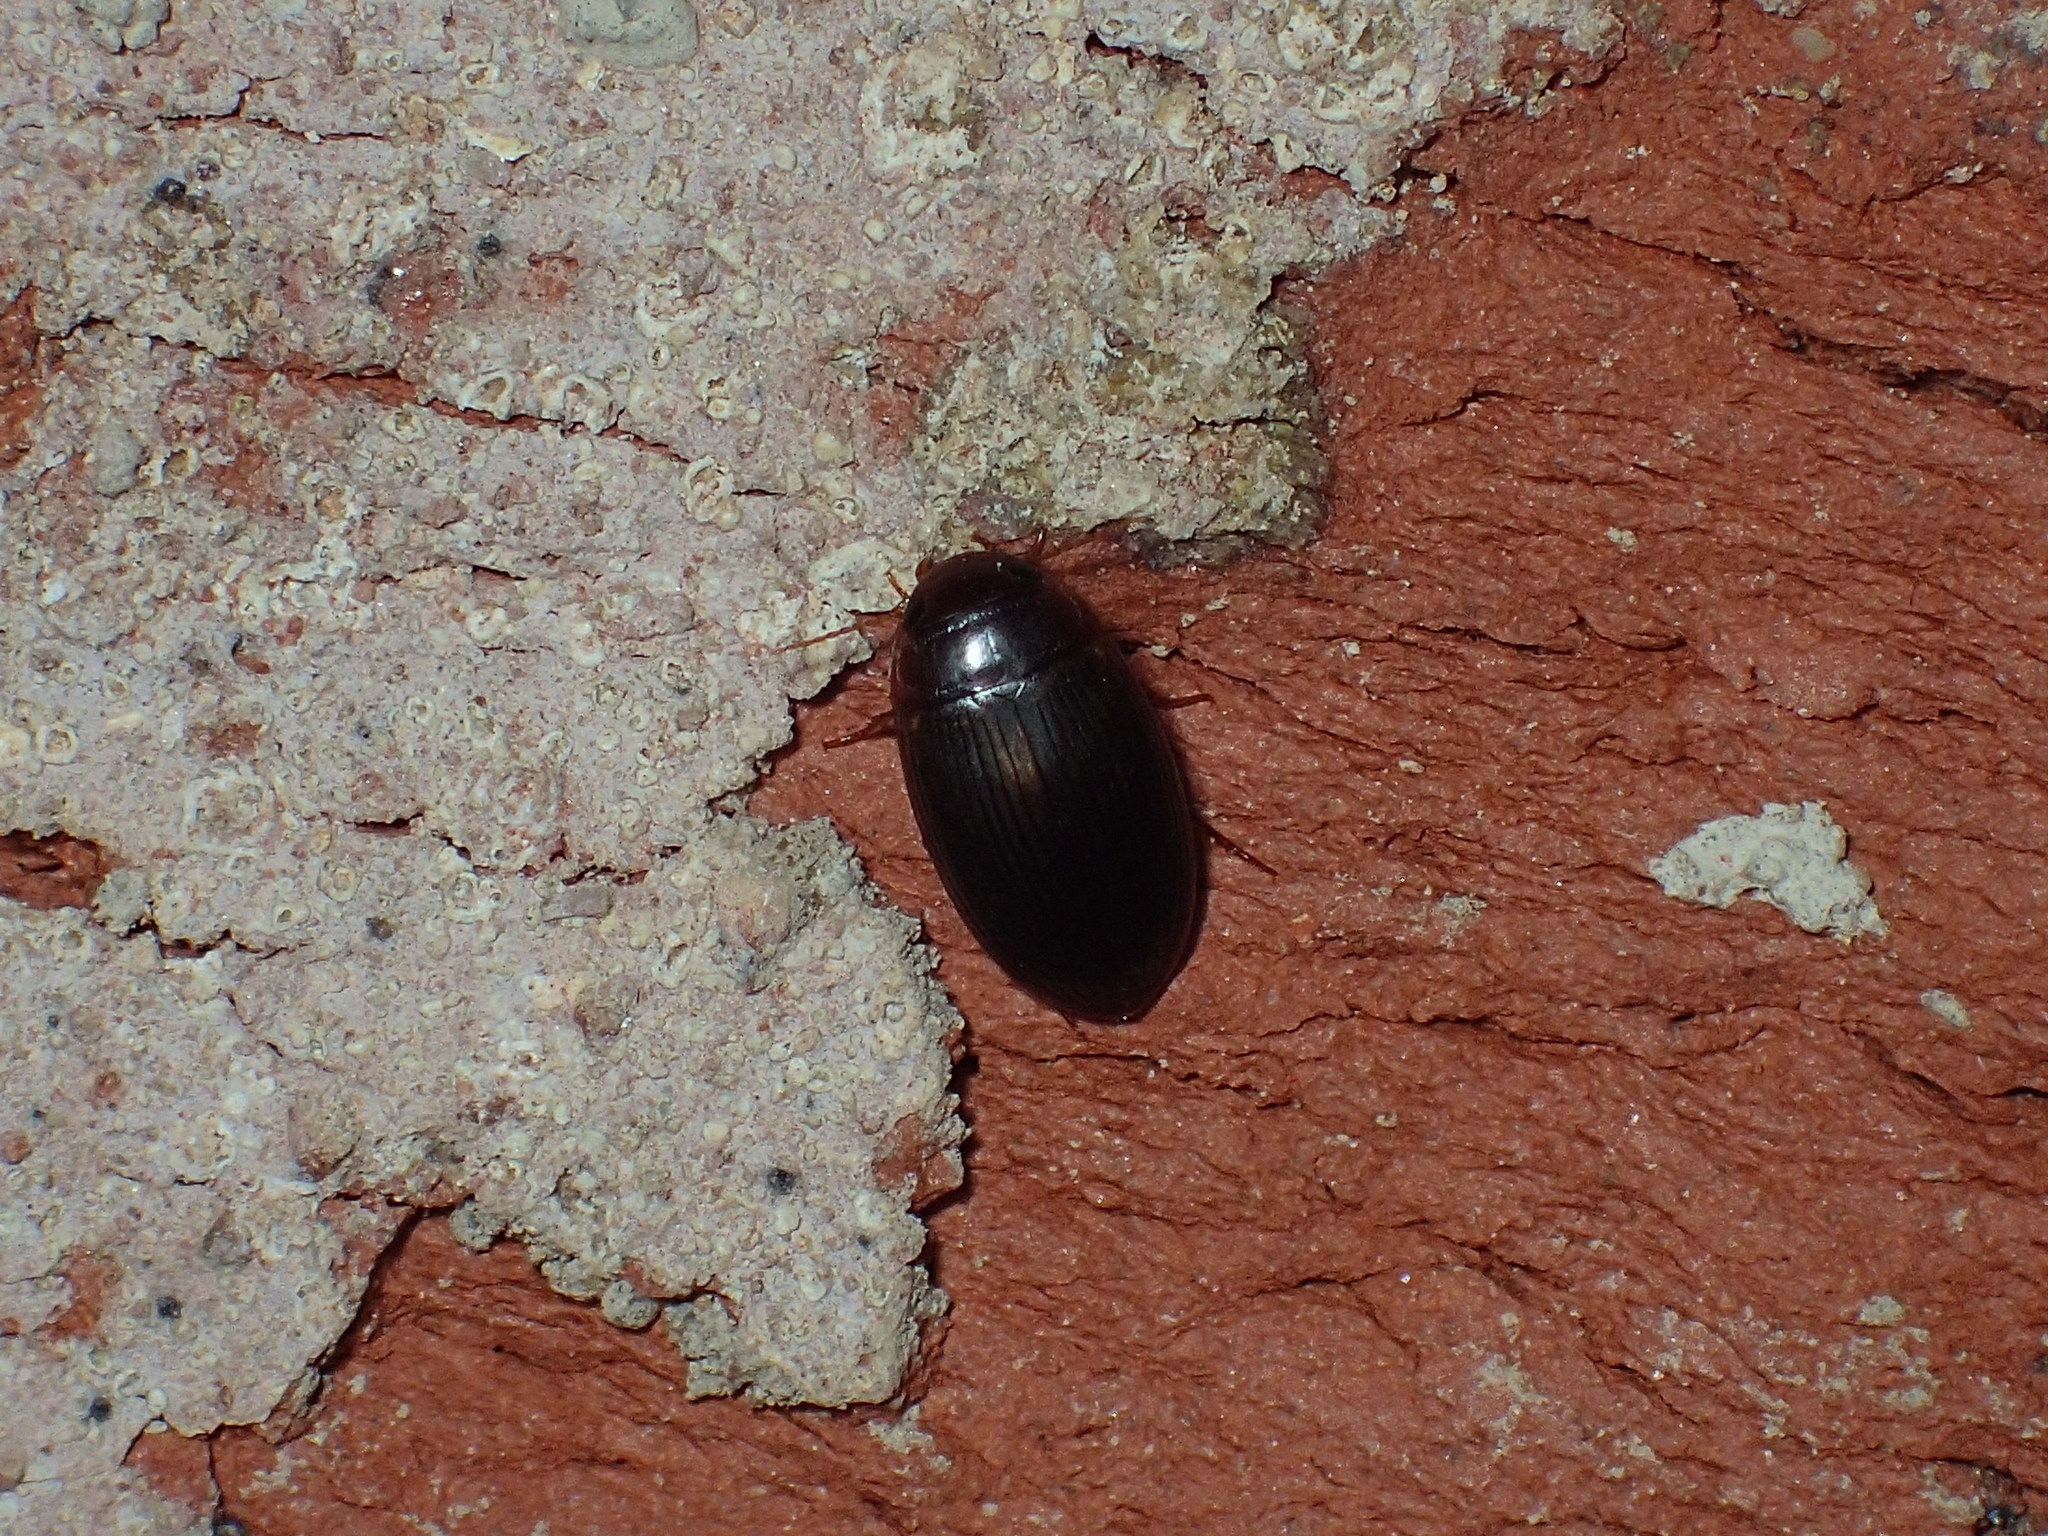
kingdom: Animalia
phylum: Arthropoda
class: Insecta
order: Coleoptera
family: Dytiscidae
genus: Copelatus
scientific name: Copelatus
